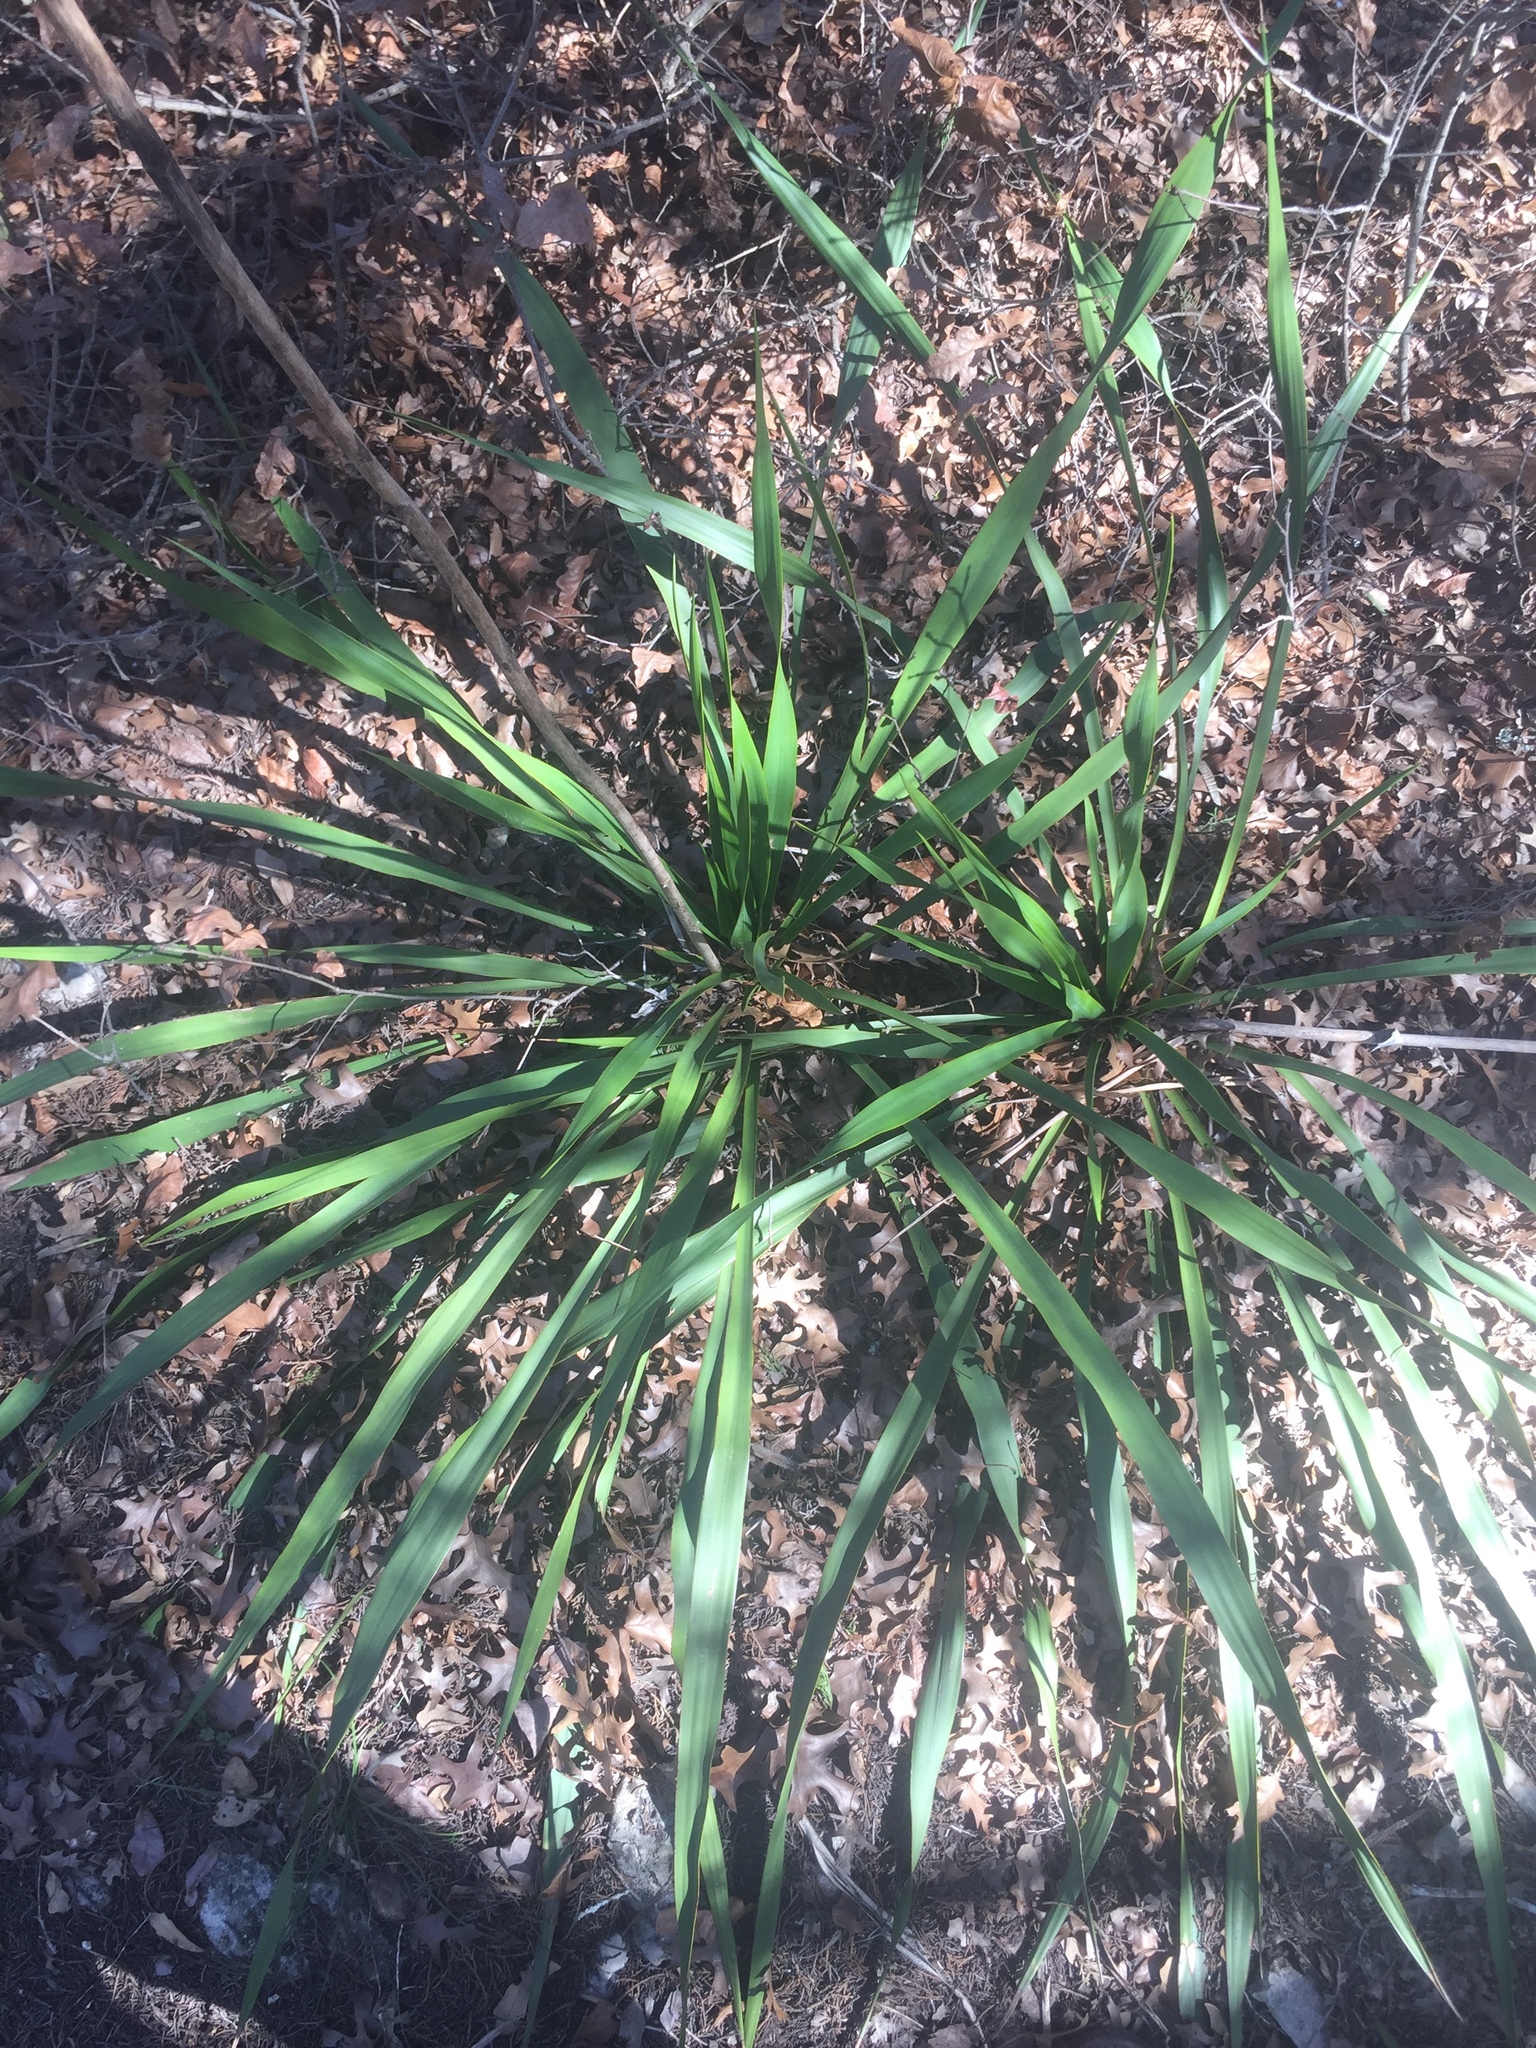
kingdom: Plantae
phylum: Tracheophyta
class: Liliopsida
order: Asparagales
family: Asparagaceae
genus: Yucca
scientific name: Yucca rupicola
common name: Twisted-leaf spanish-dagger
